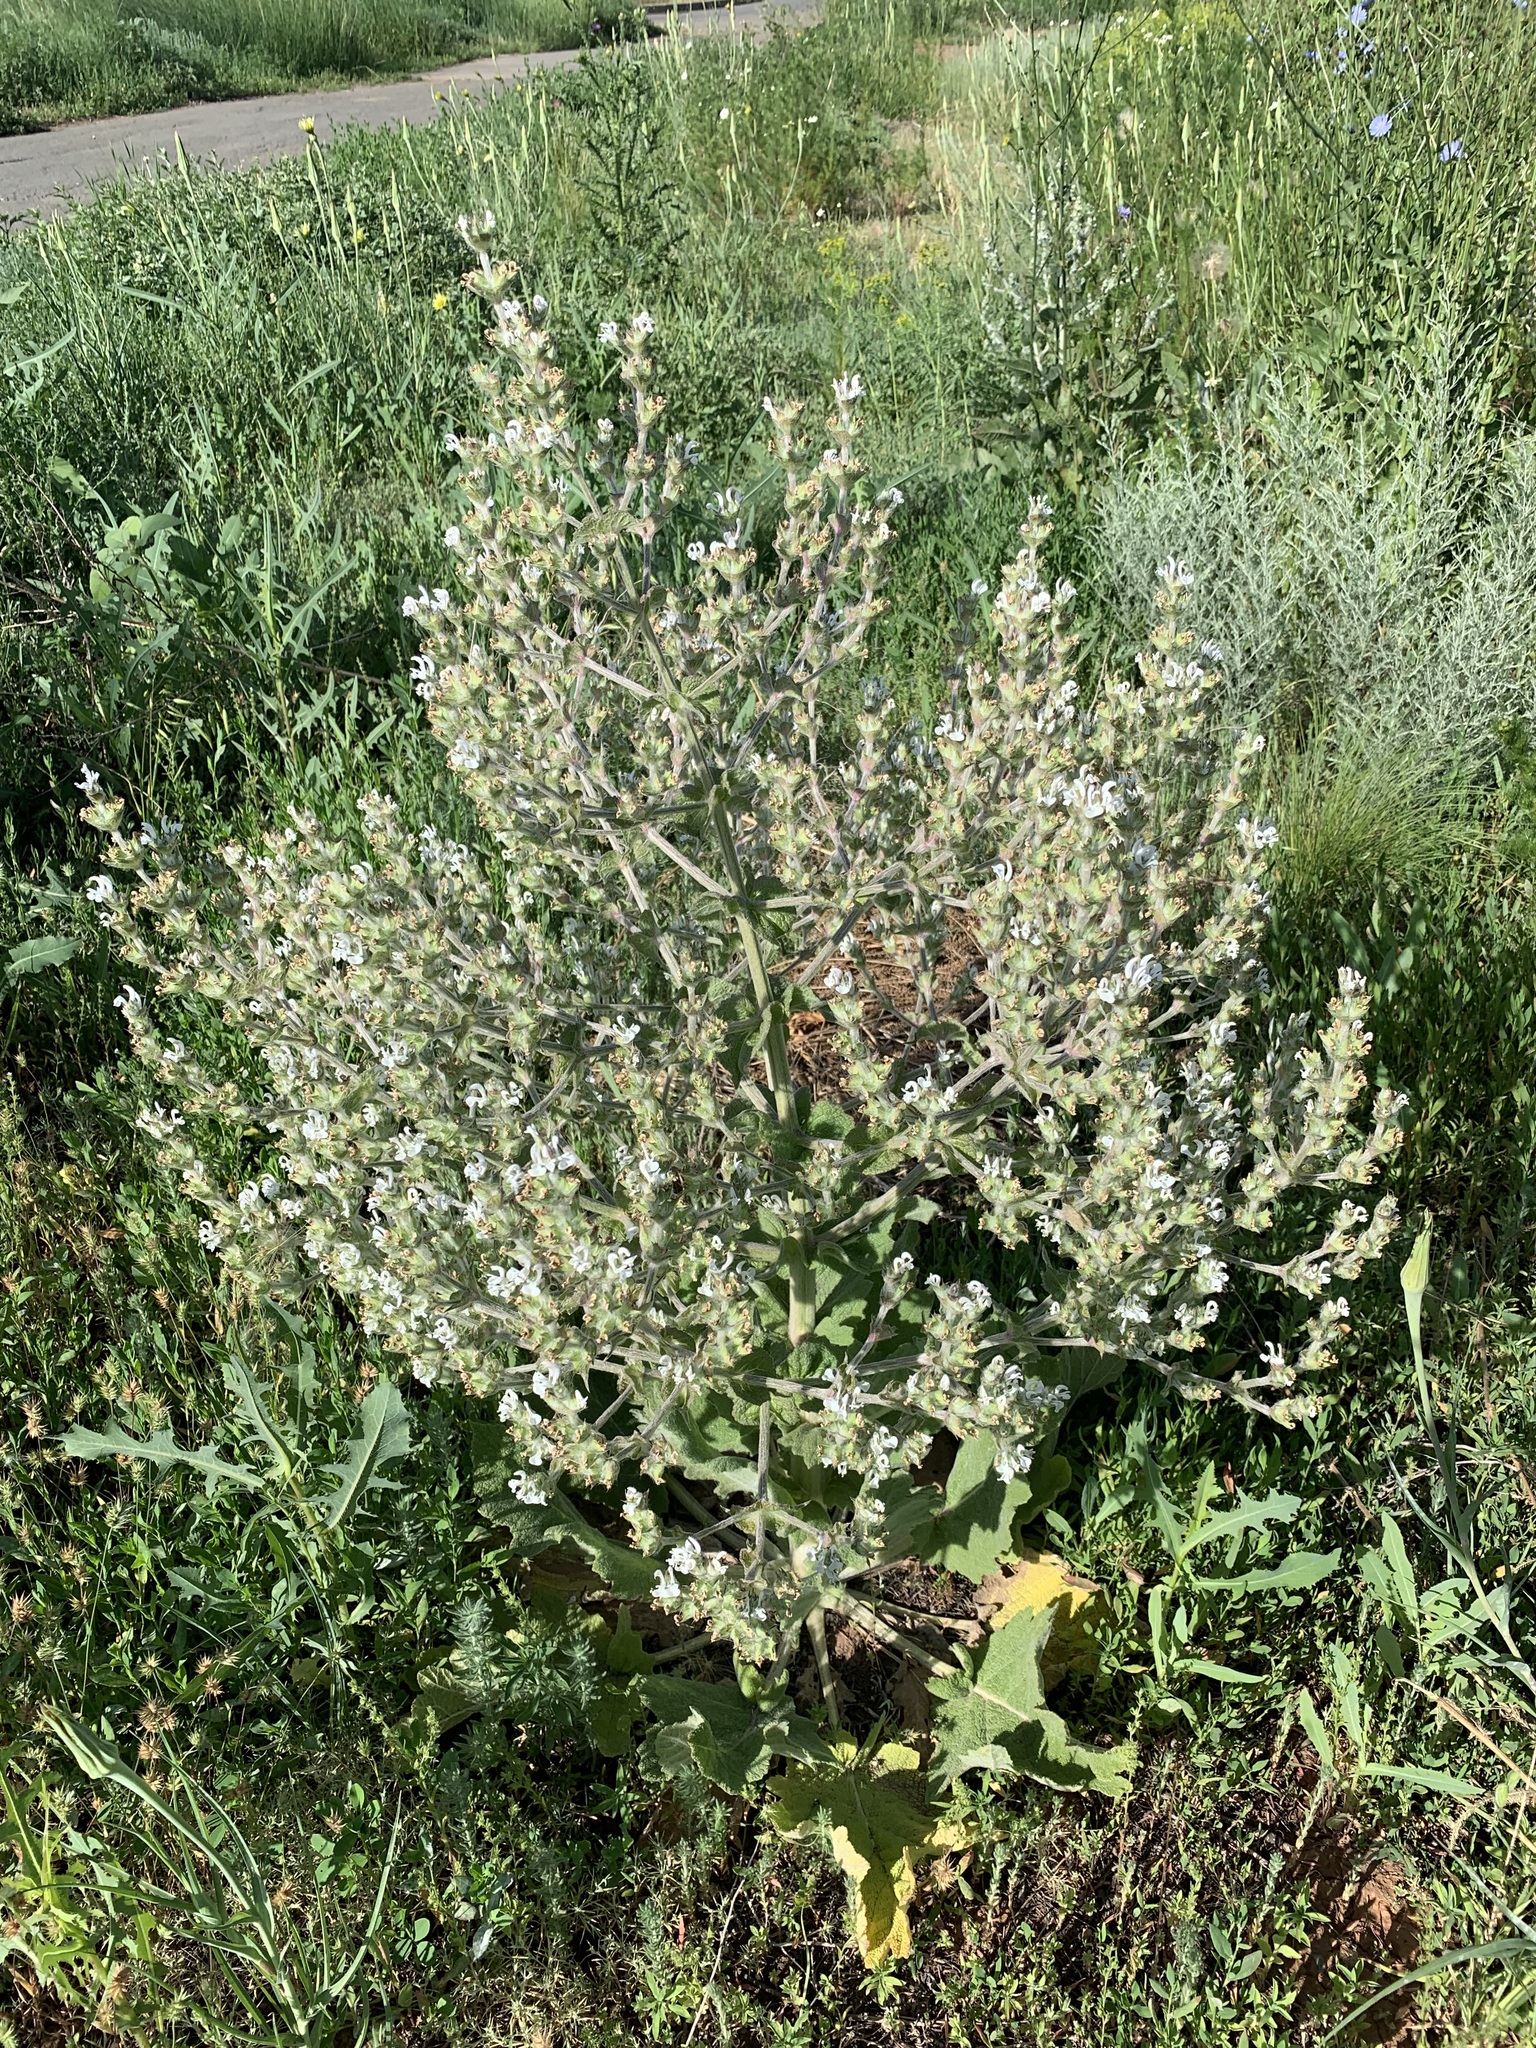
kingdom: Plantae
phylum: Tracheophyta
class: Magnoliopsida
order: Lamiales
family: Lamiaceae
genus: Salvia
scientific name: Salvia aethiopis
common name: Mediterranean sage
